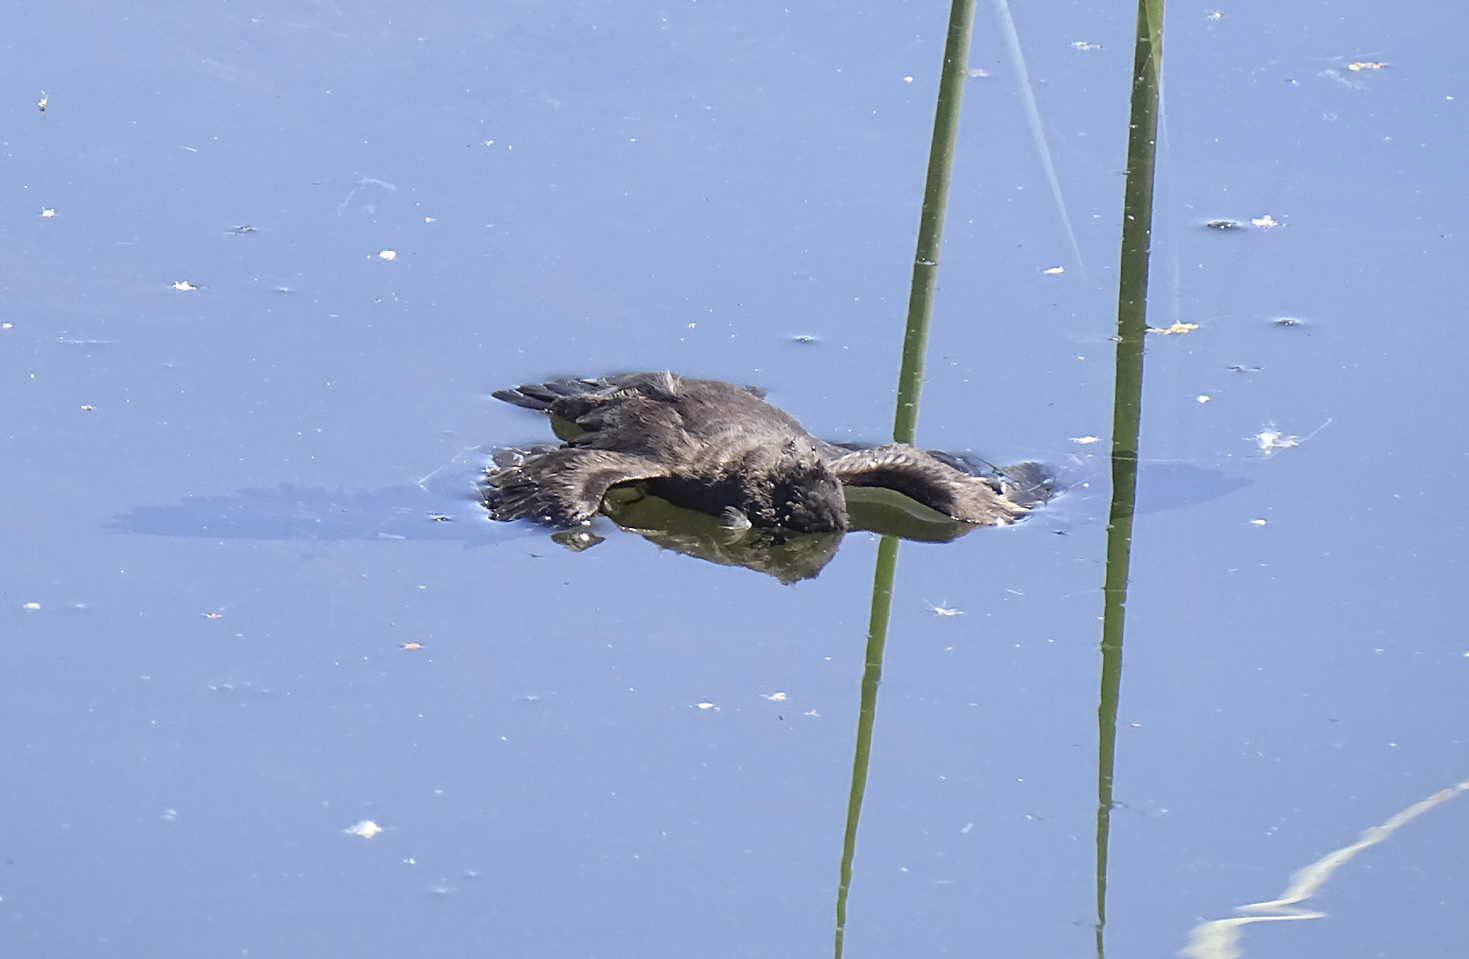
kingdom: Animalia
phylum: Chordata
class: Aves
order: Procellariiformes
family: Hydrobatidae
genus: Oceanodroma
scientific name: Oceanodroma microsoma
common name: Least storm-petrel
